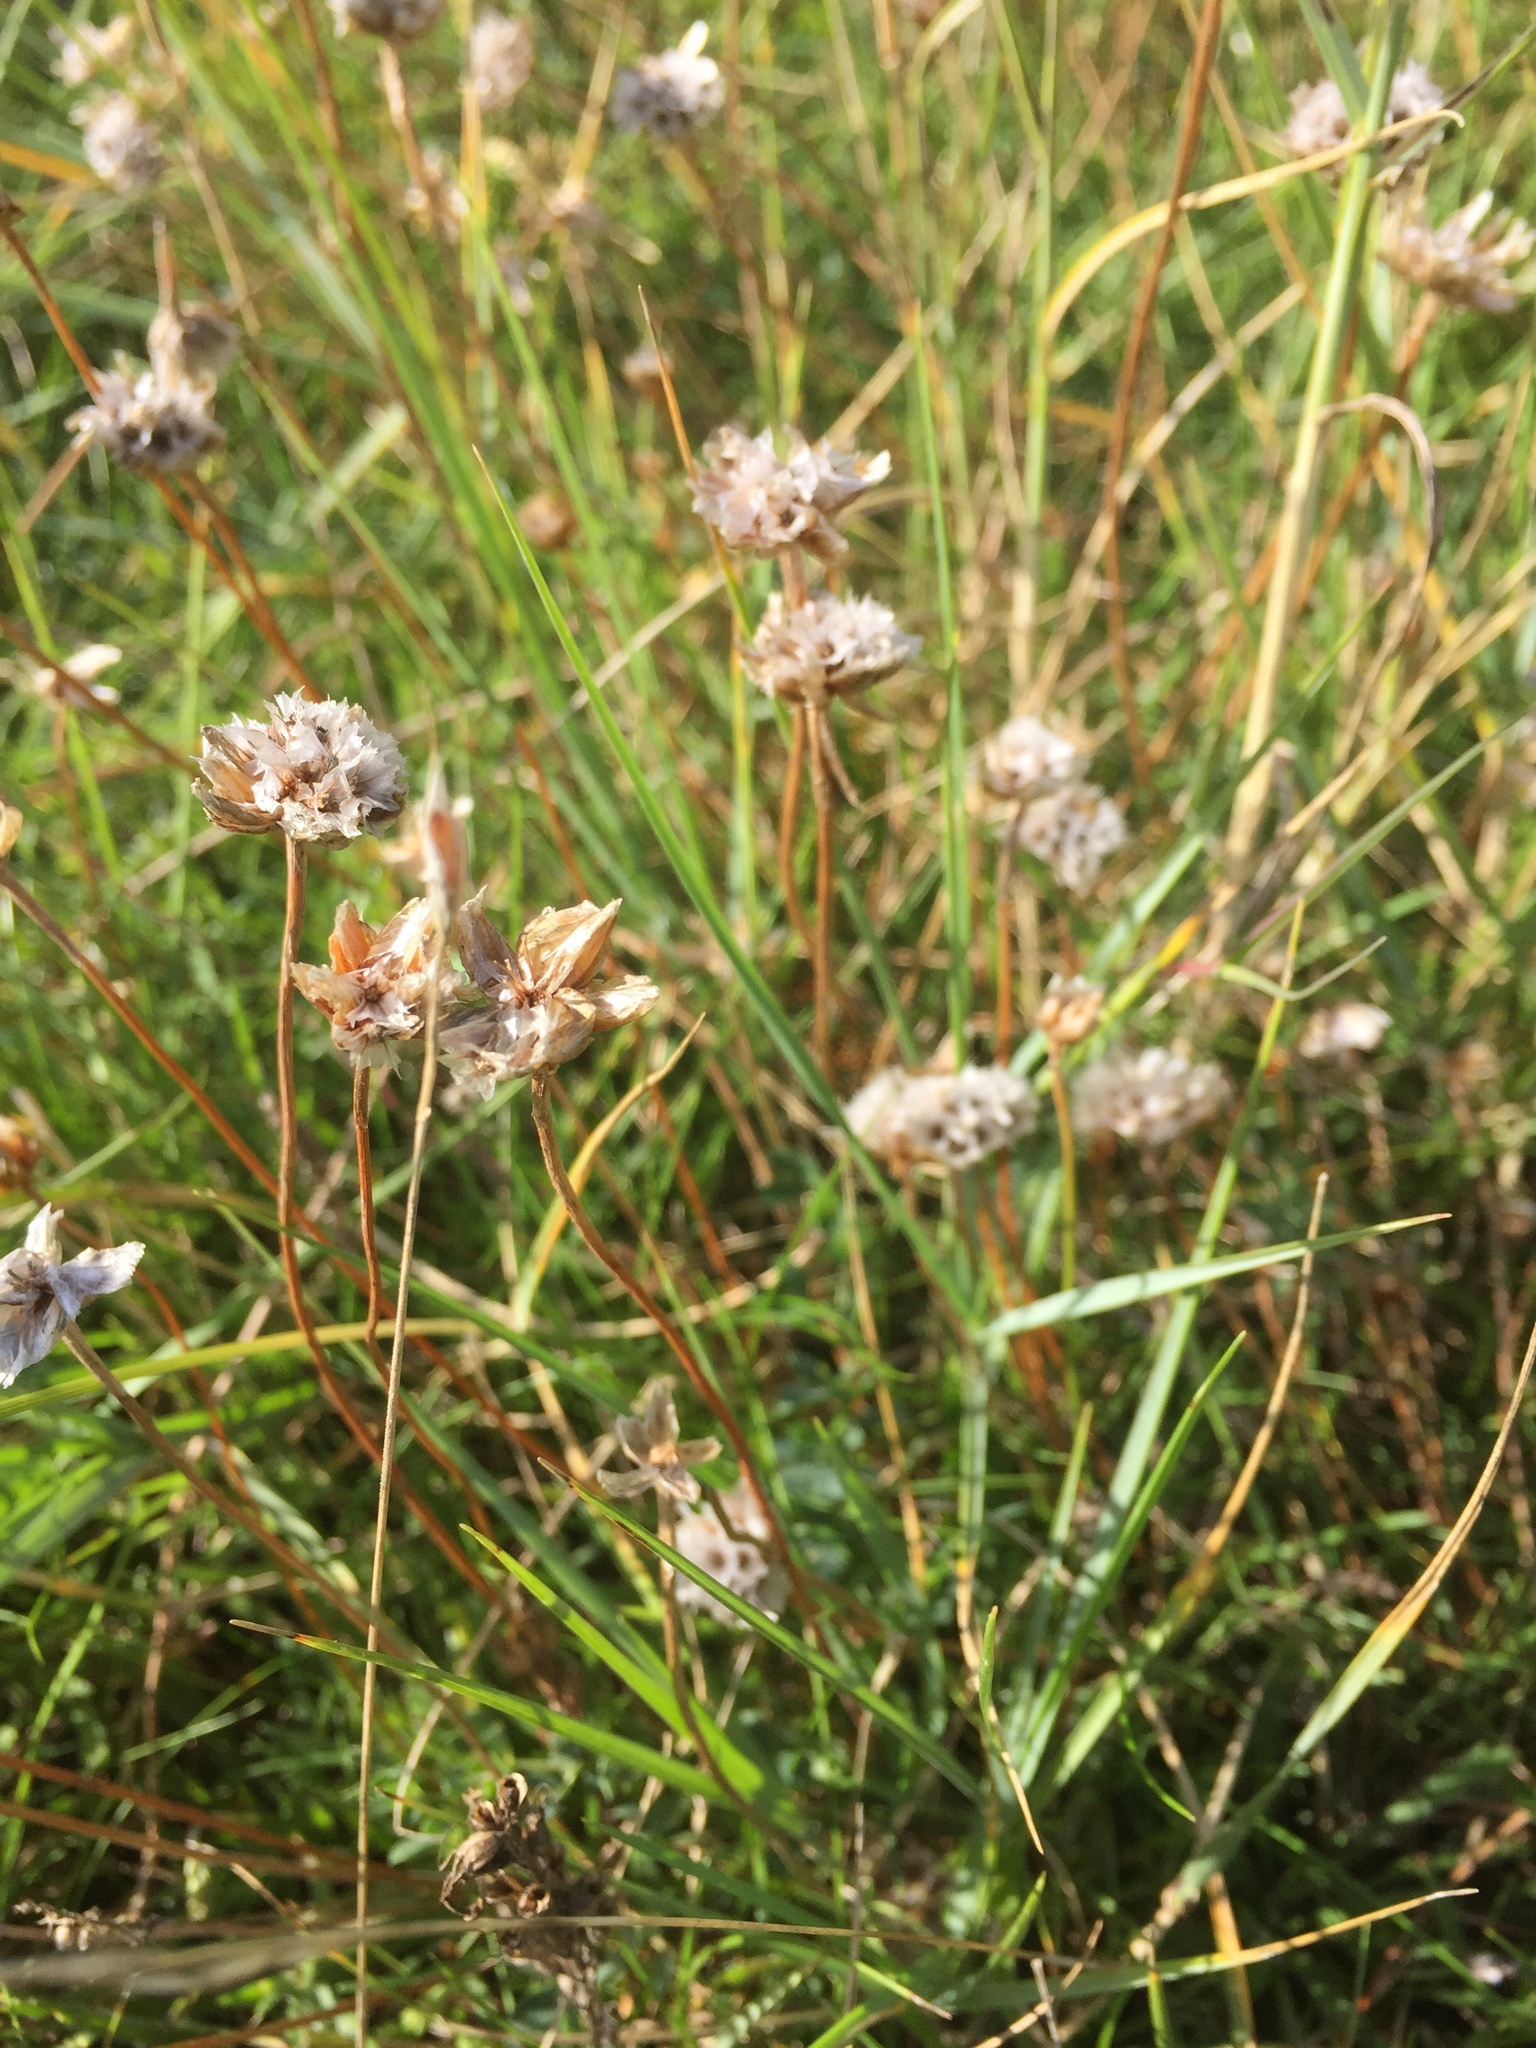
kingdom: Plantae
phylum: Tracheophyta
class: Magnoliopsida
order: Caryophyllales
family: Plumbaginaceae
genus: Armeria
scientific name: Armeria maritima
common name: Thrift
